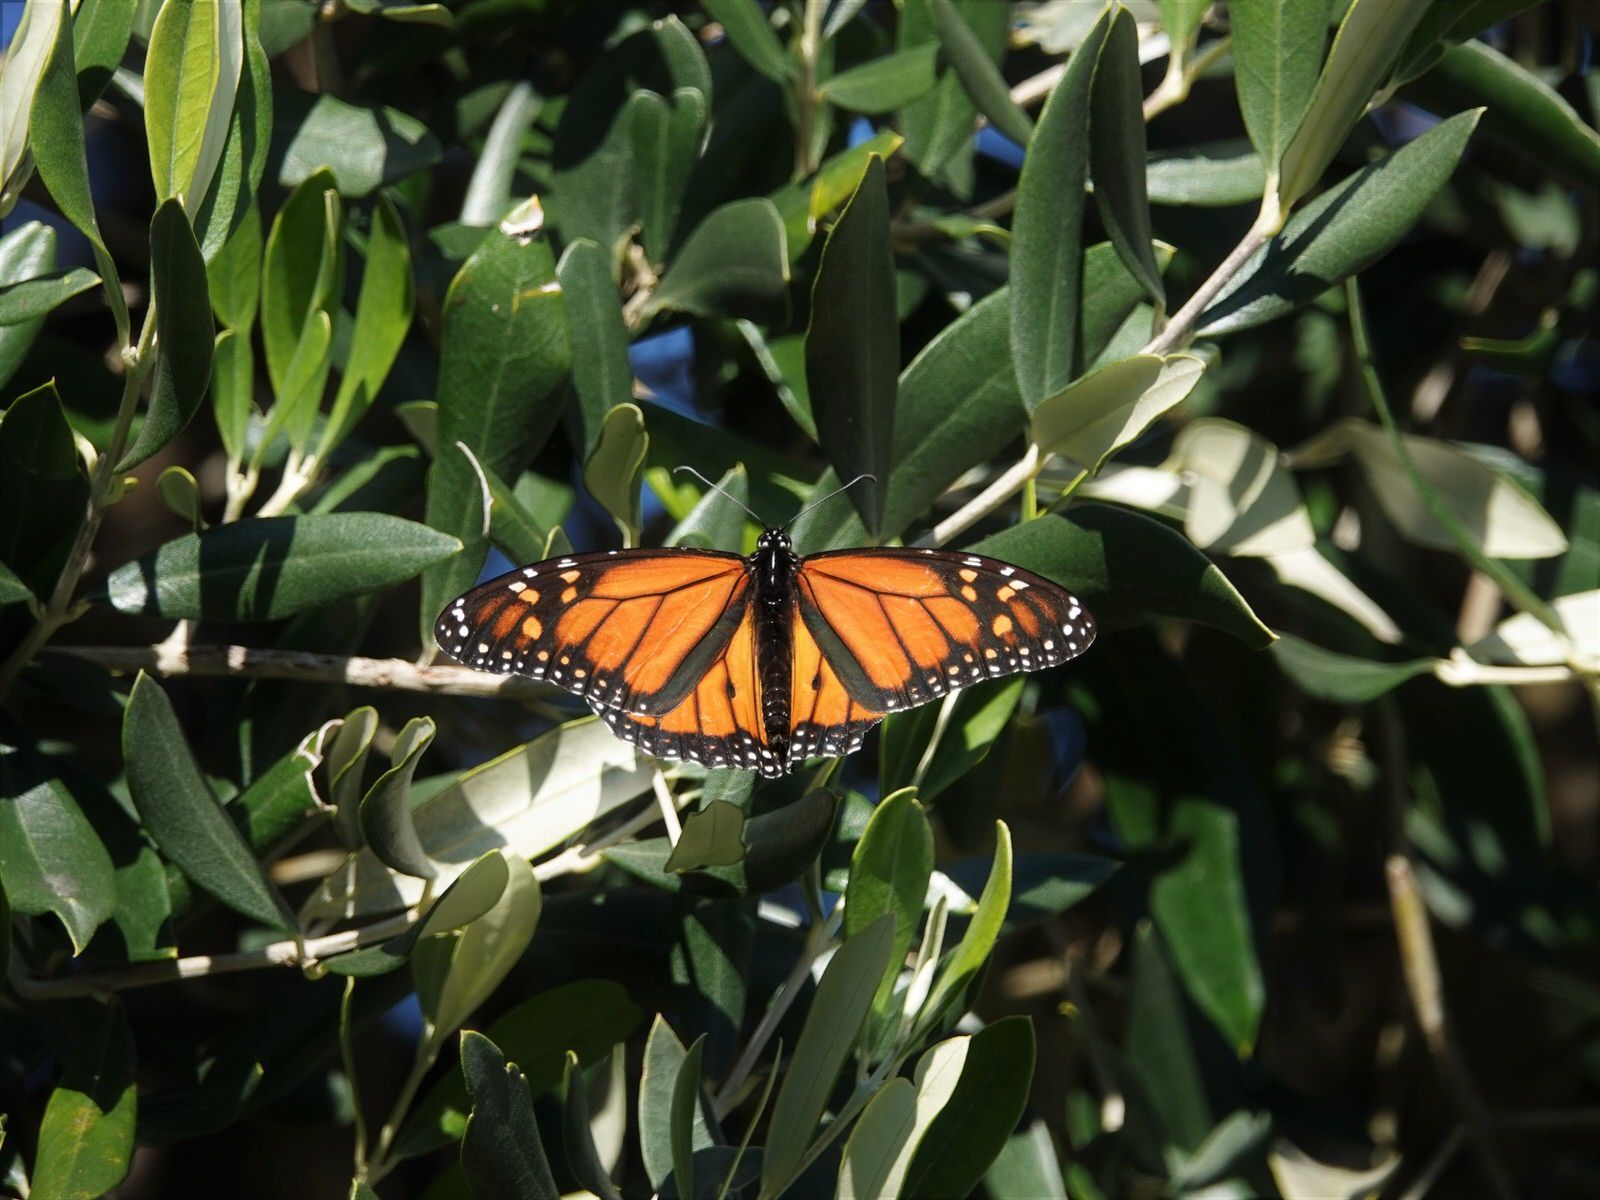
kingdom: Animalia
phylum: Arthropoda
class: Insecta
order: Lepidoptera
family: Nymphalidae
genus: Danaus
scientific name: Danaus plexippus
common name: Monarch
